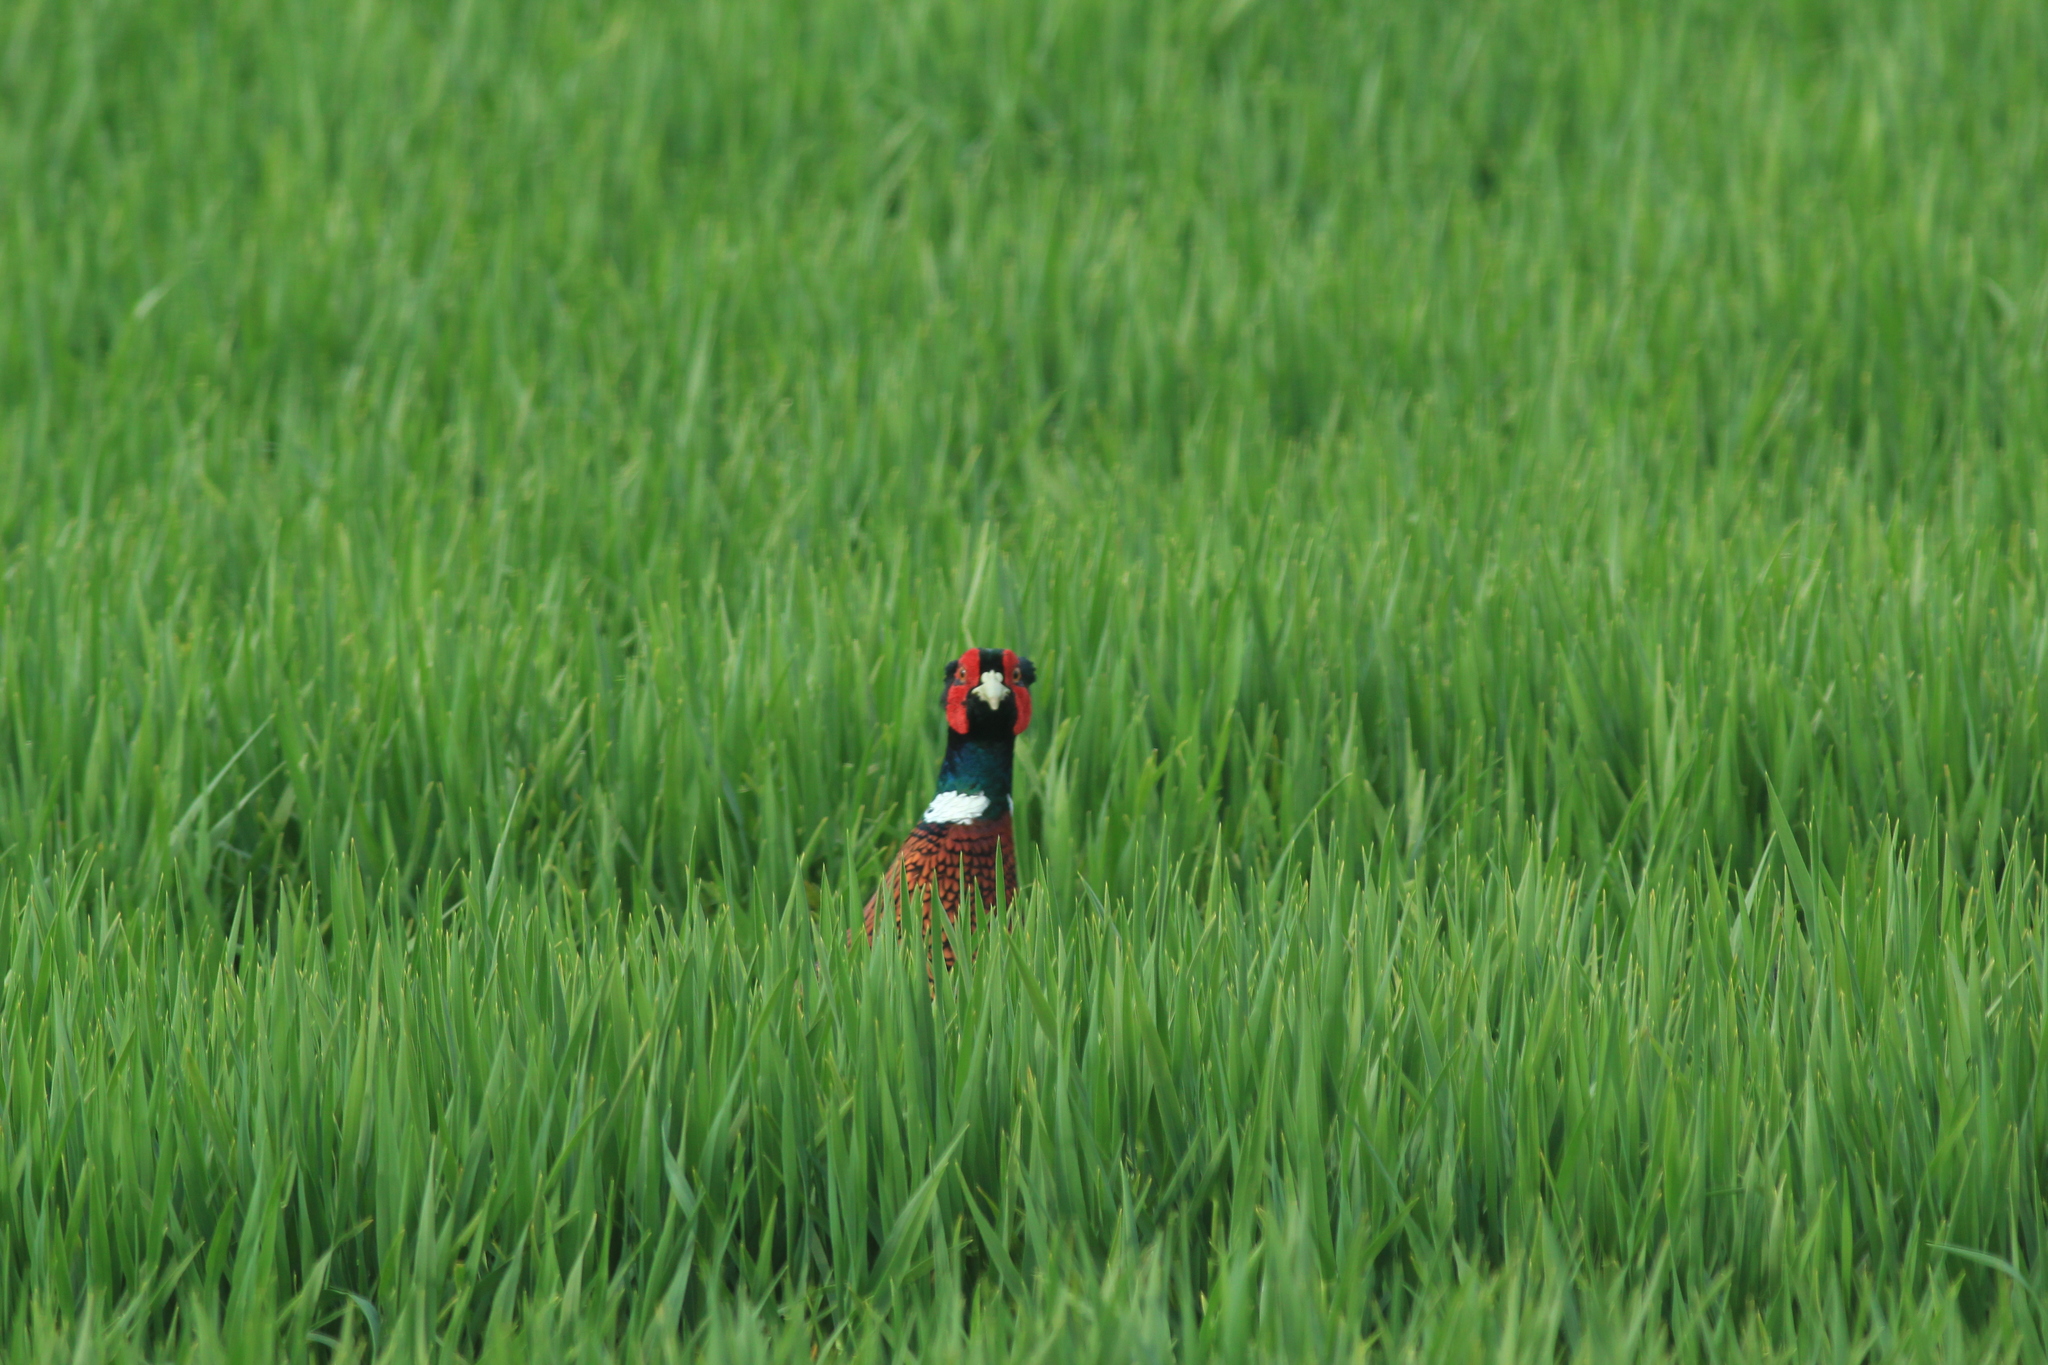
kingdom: Animalia
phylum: Chordata
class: Aves
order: Galliformes
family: Phasianidae
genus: Phasianus
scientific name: Phasianus colchicus
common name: Common pheasant
